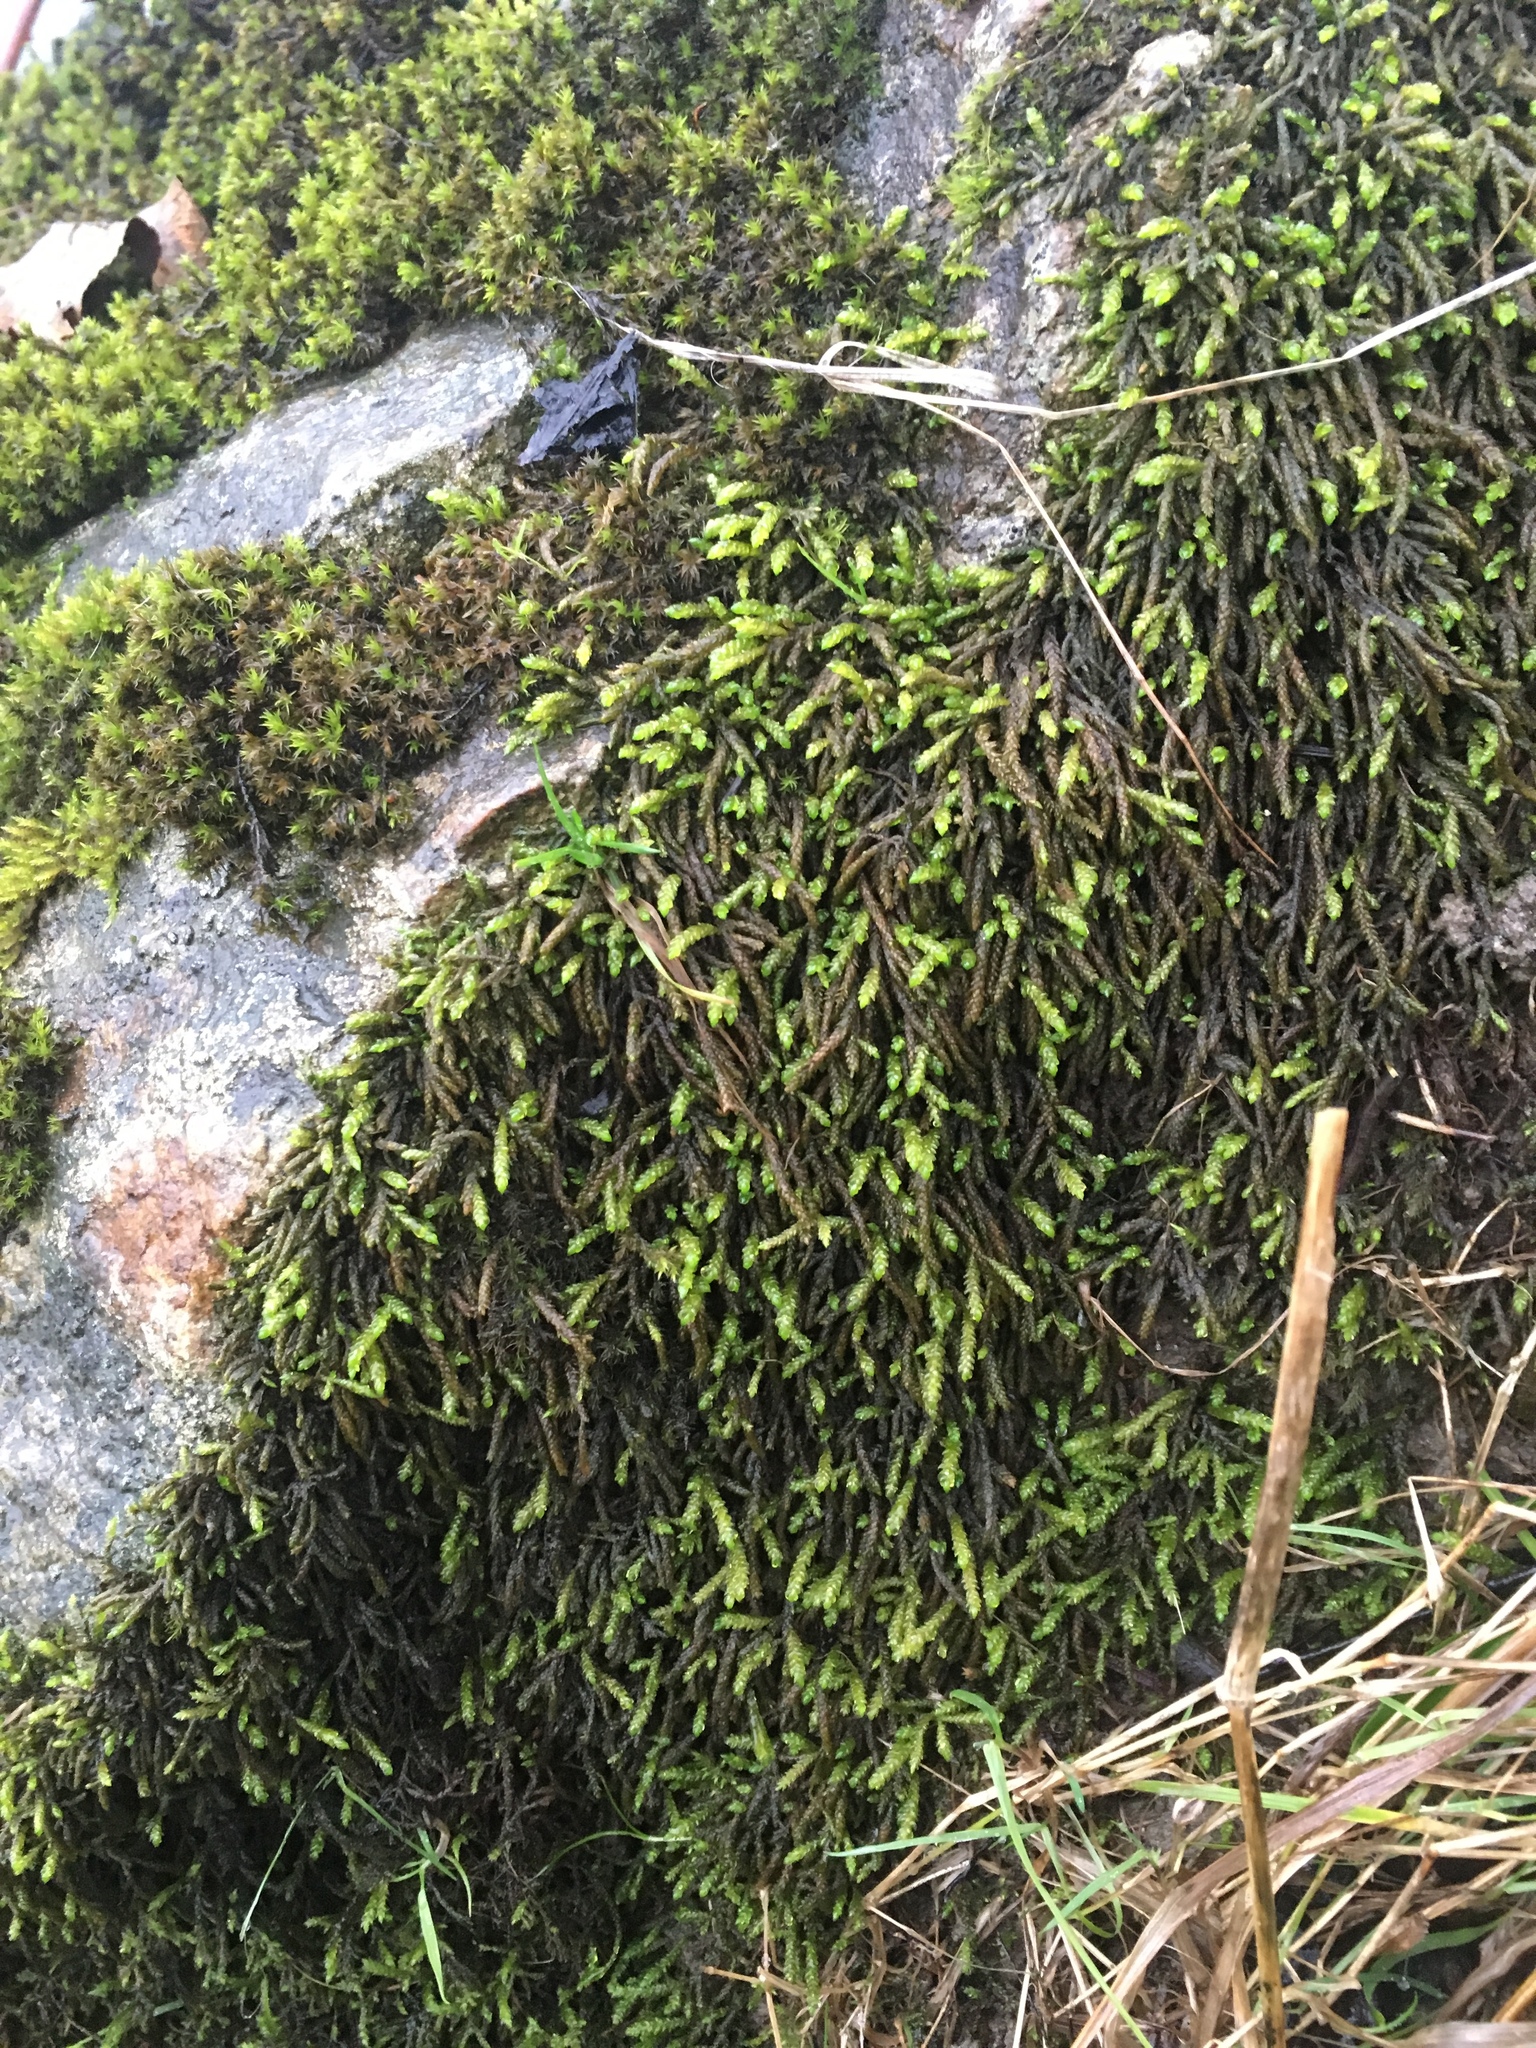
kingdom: Plantae
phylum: Bryophyta
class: Bryopsida
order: Hypnales
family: Brachytheciaceae
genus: Scleropodium
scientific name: Scleropodium obtusifolium
